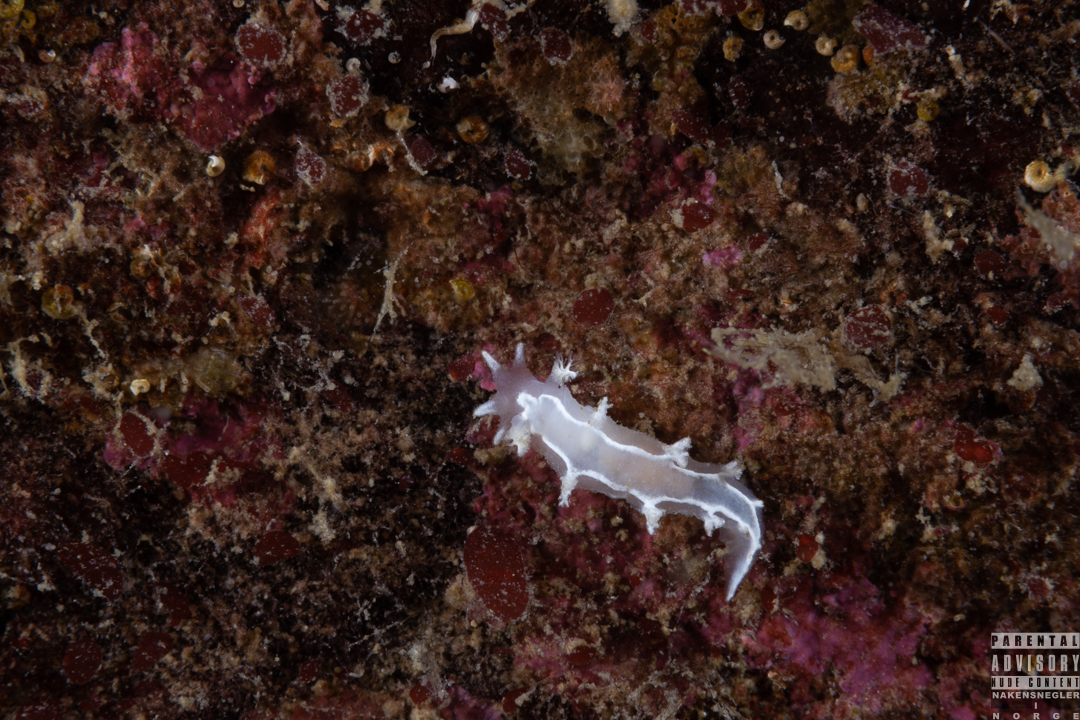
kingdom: Animalia
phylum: Mollusca
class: Gastropoda
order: Nudibranchia
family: Tritoniidae
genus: Duvaucelia
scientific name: Duvaucelia lineata
